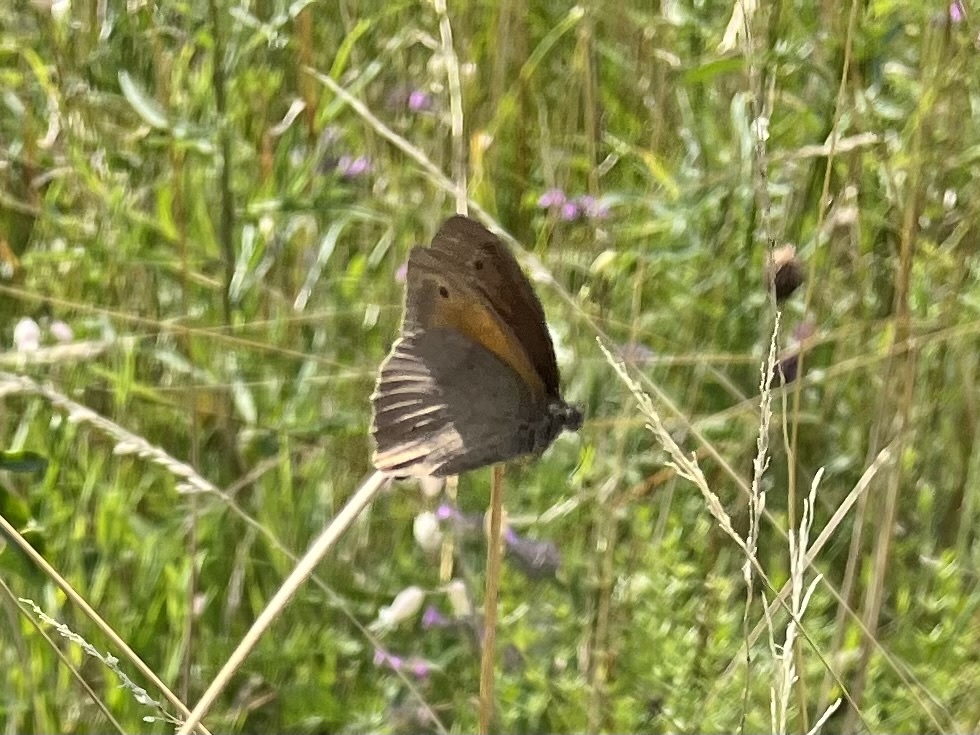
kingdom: Animalia
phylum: Arthropoda
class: Insecta
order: Lepidoptera
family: Nymphalidae
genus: Maniola
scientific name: Maniola jurtina
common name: Meadow brown
